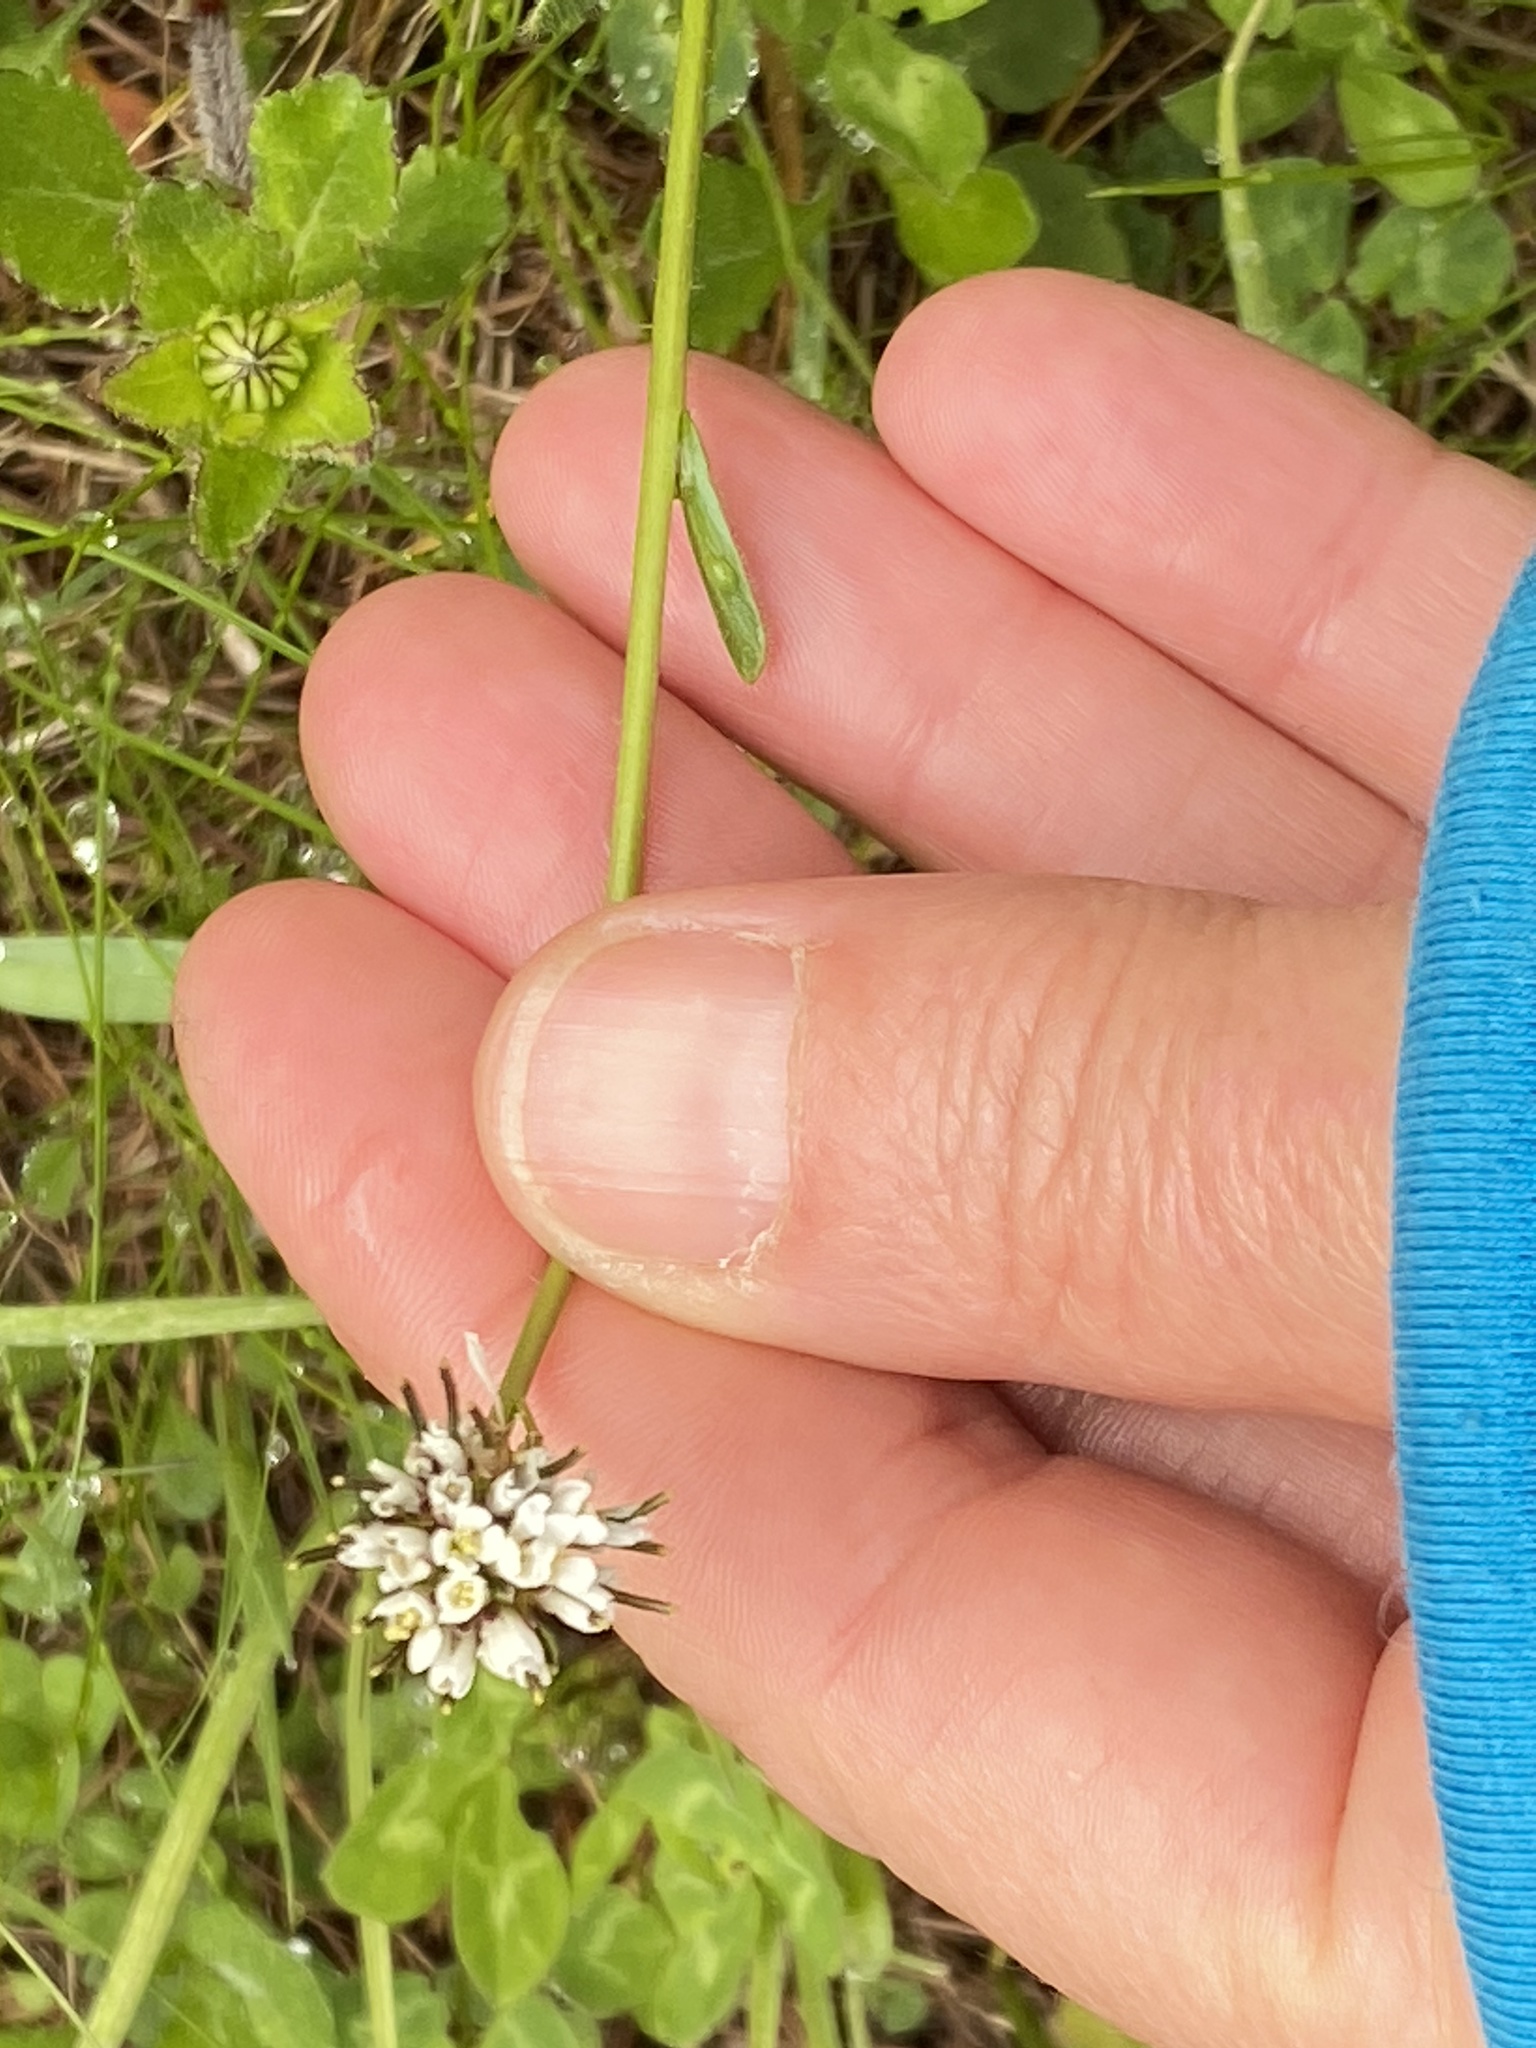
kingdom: Plantae
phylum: Tracheophyta
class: Magnoliopsida
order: Brassicales
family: Brassicaceae
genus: Arabis
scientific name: Arabis ciliata
